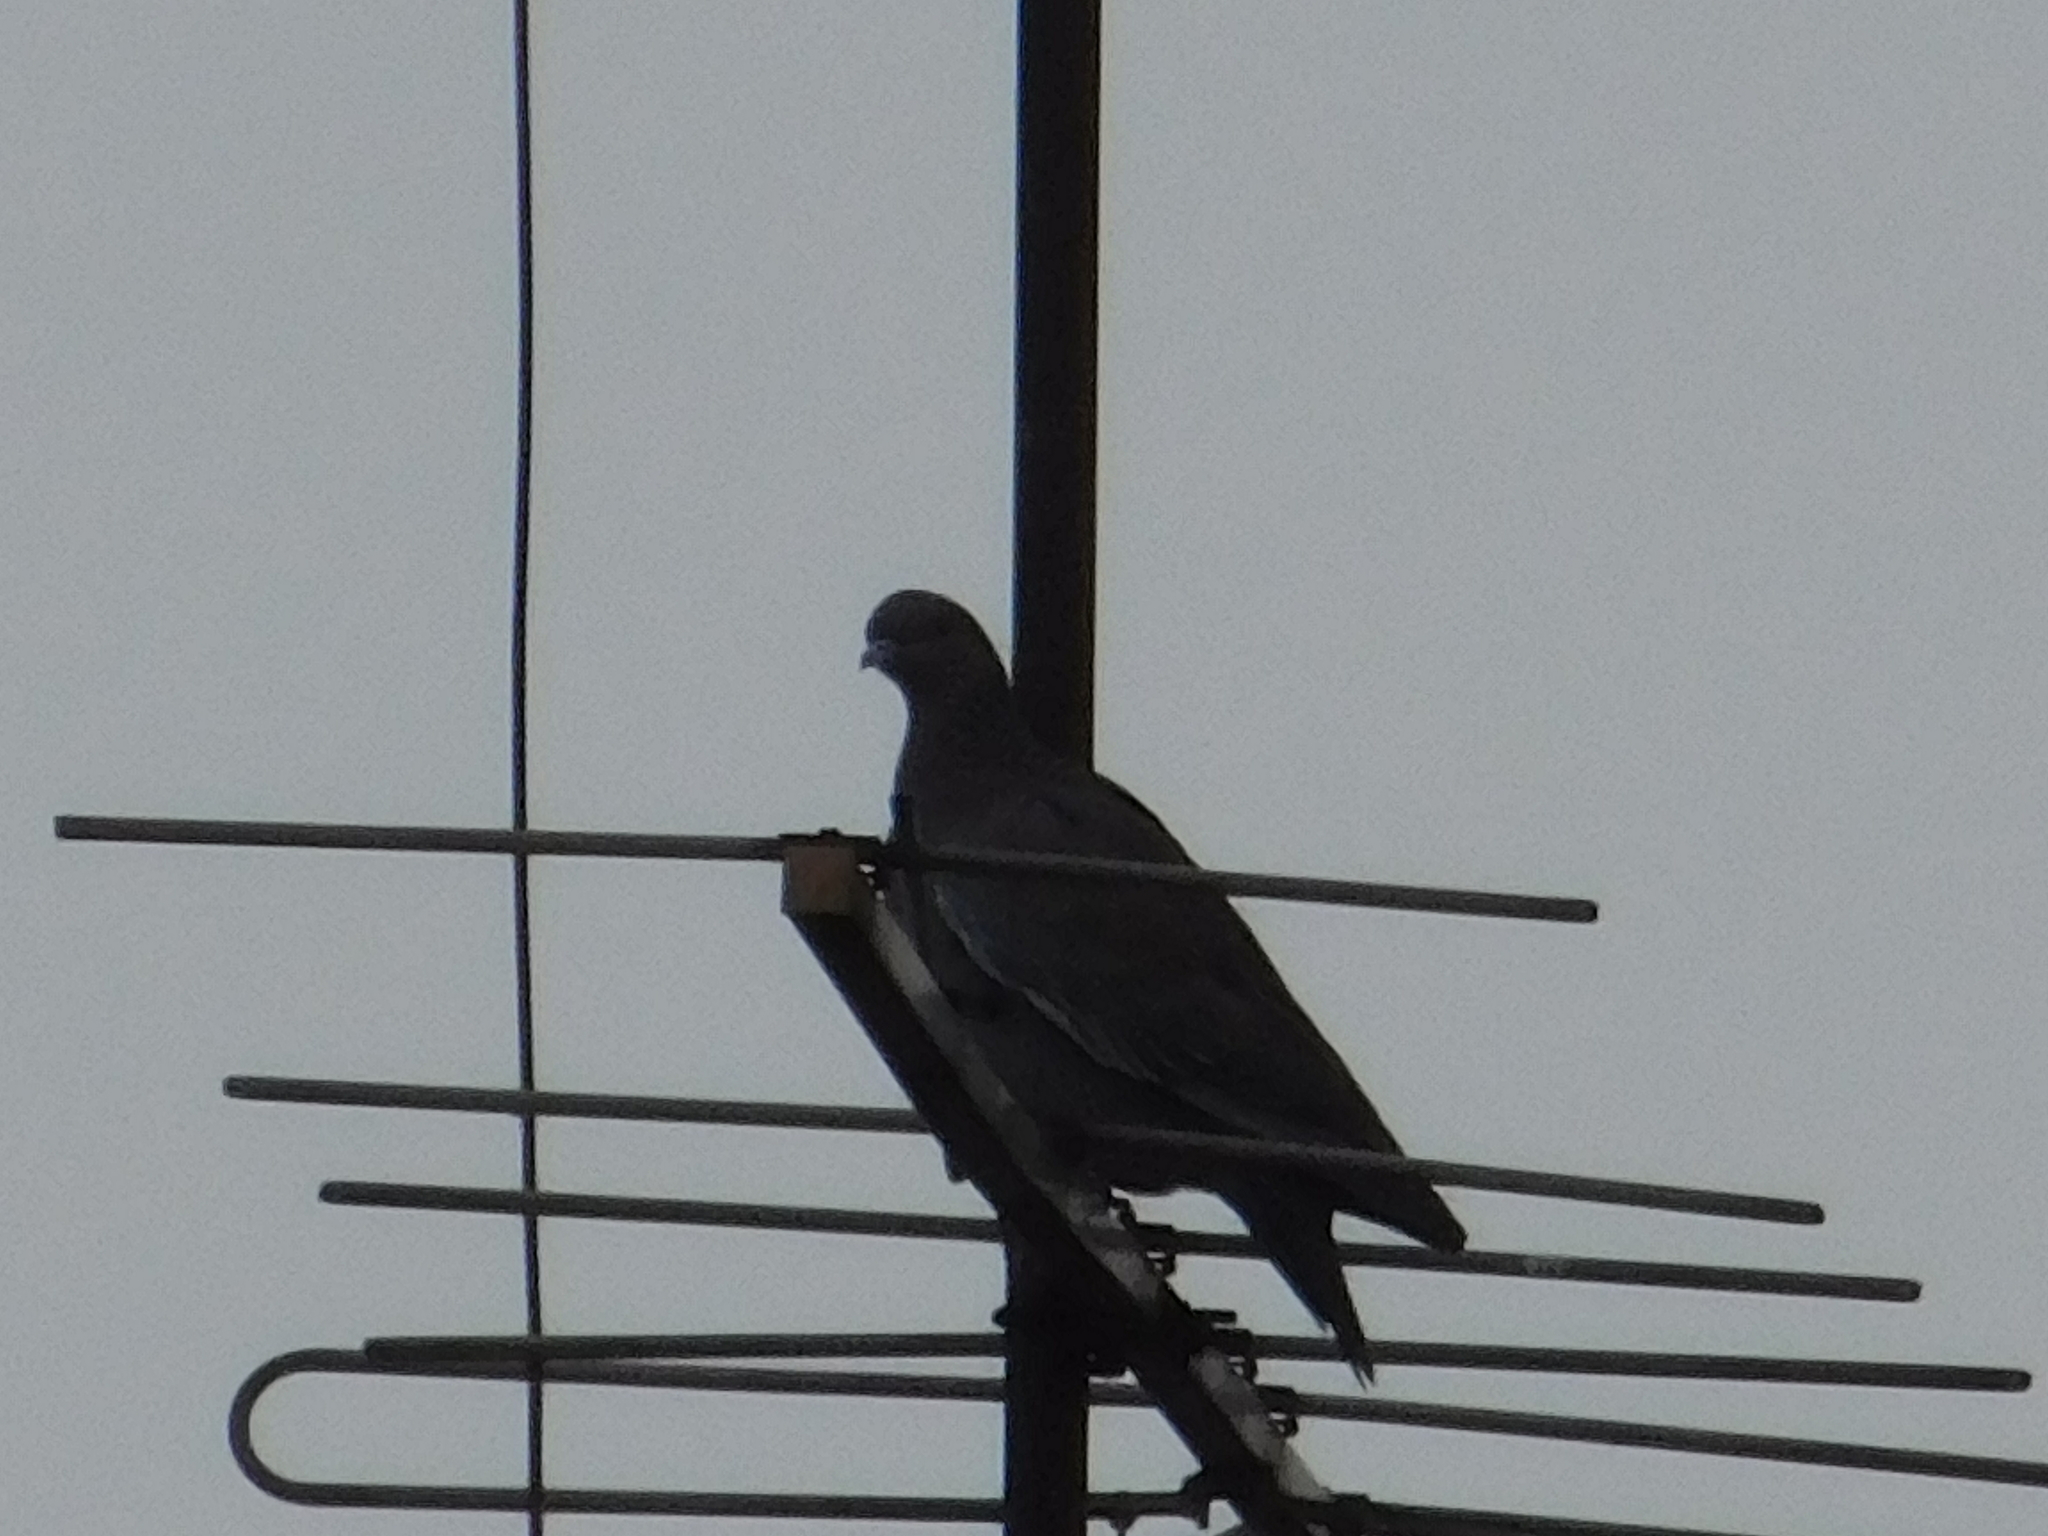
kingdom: Animalia
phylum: Chordata
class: Aves
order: Columbiformes
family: Columbidae
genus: Patagioenas
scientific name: Patagioenas picazuro
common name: Picazuro pigeon
